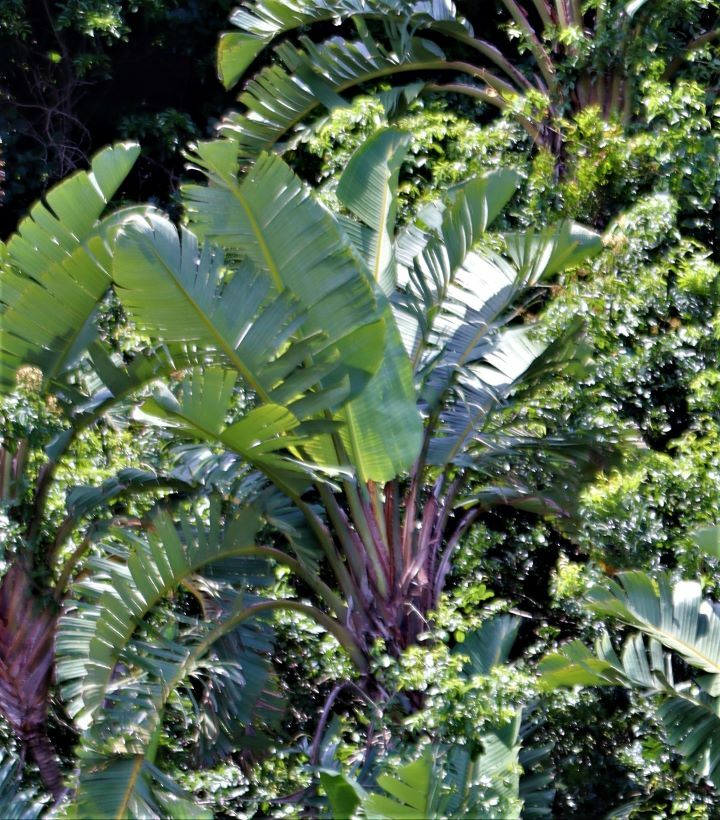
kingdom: Plantae
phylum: Tracheophyta
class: Liliopsida
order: Zingiberales
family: Strelitziaceae
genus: Strelitzia
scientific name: Strelitzia nicolai
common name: Bird-of-paradise tree
